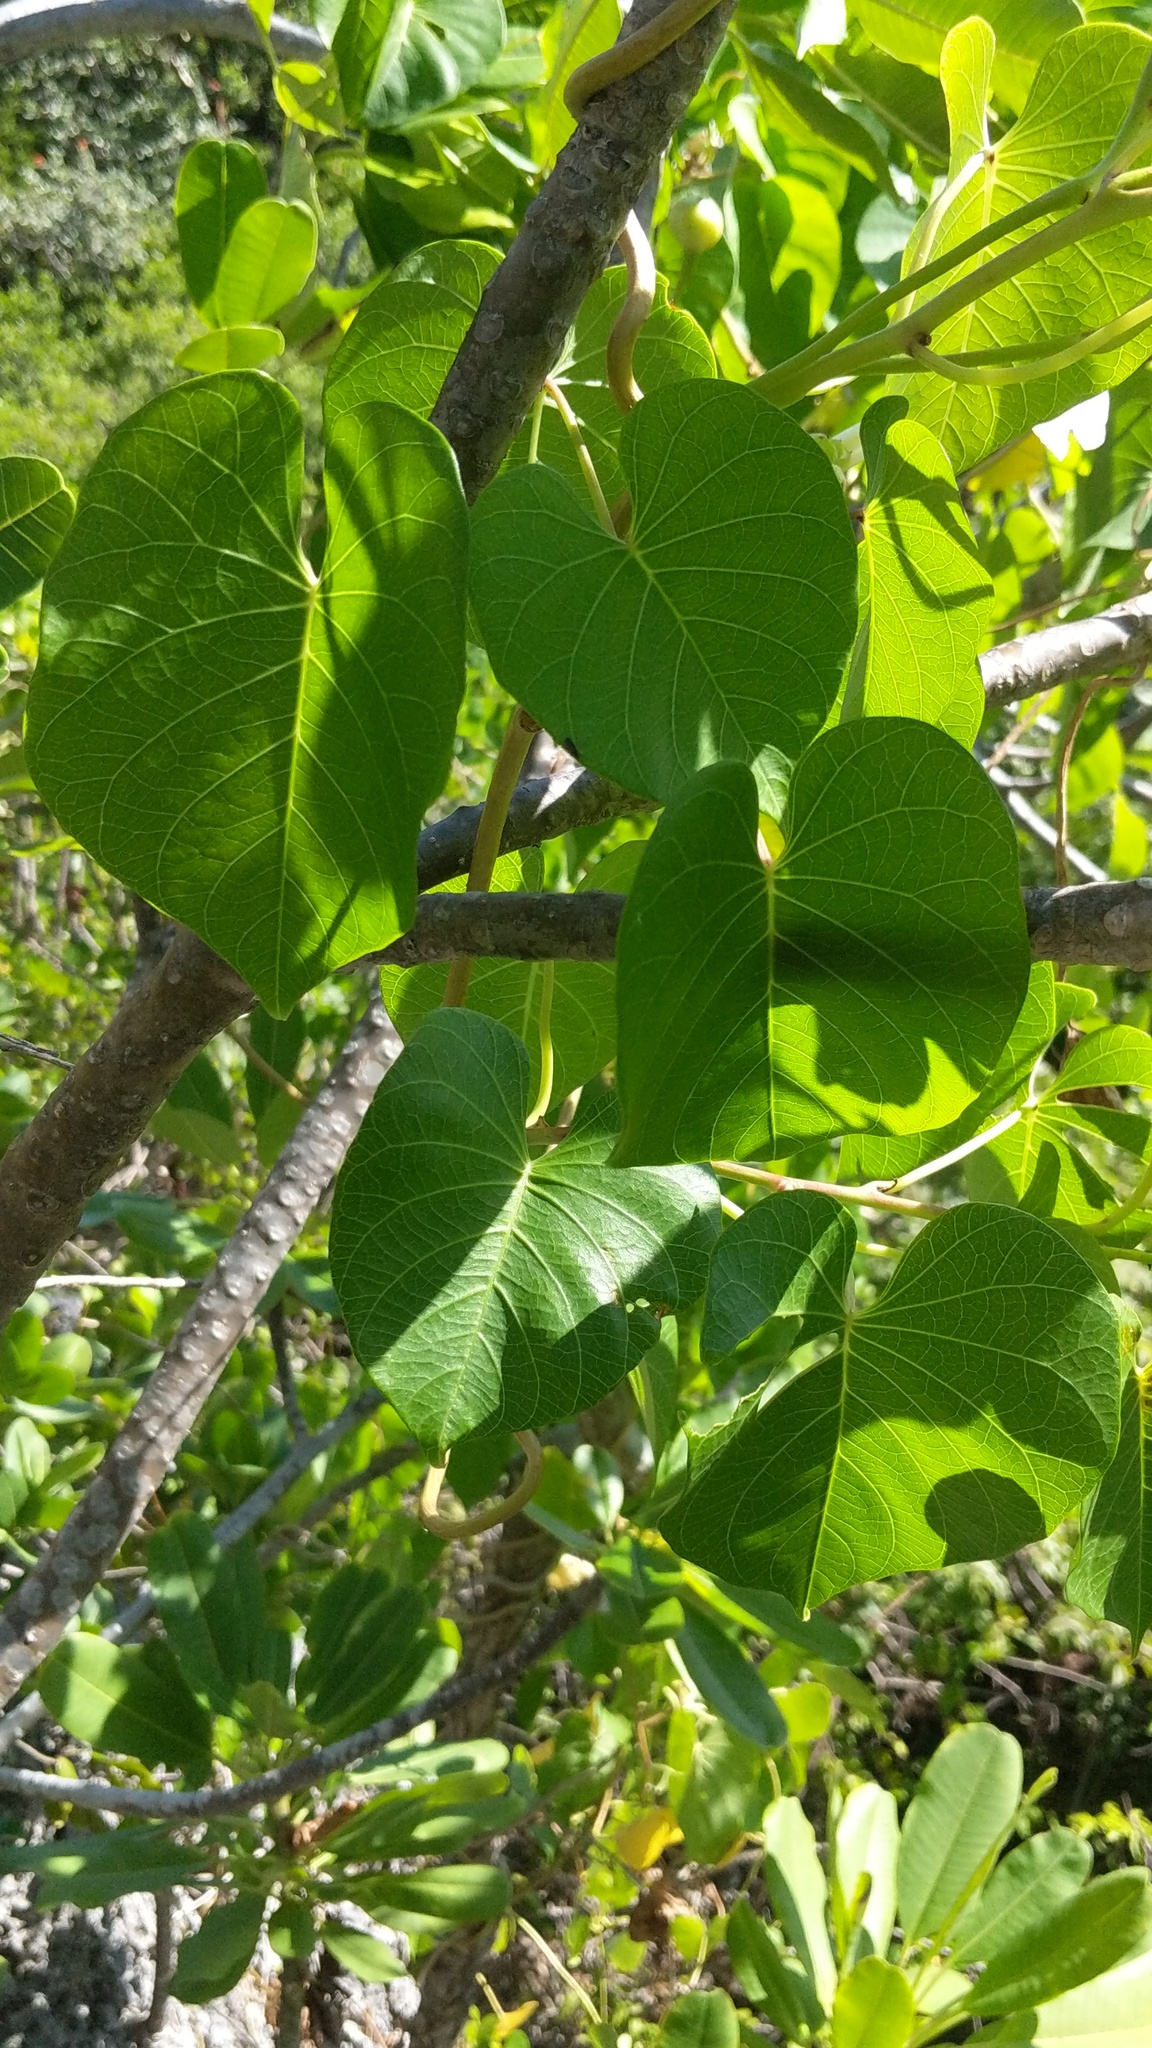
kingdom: Plantae
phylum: Tracheophyta
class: Magnoliopsida
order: Solanales
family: Convolvulaceae
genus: Ipomoea
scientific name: Ipomoea violacea
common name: Beach moonflower
